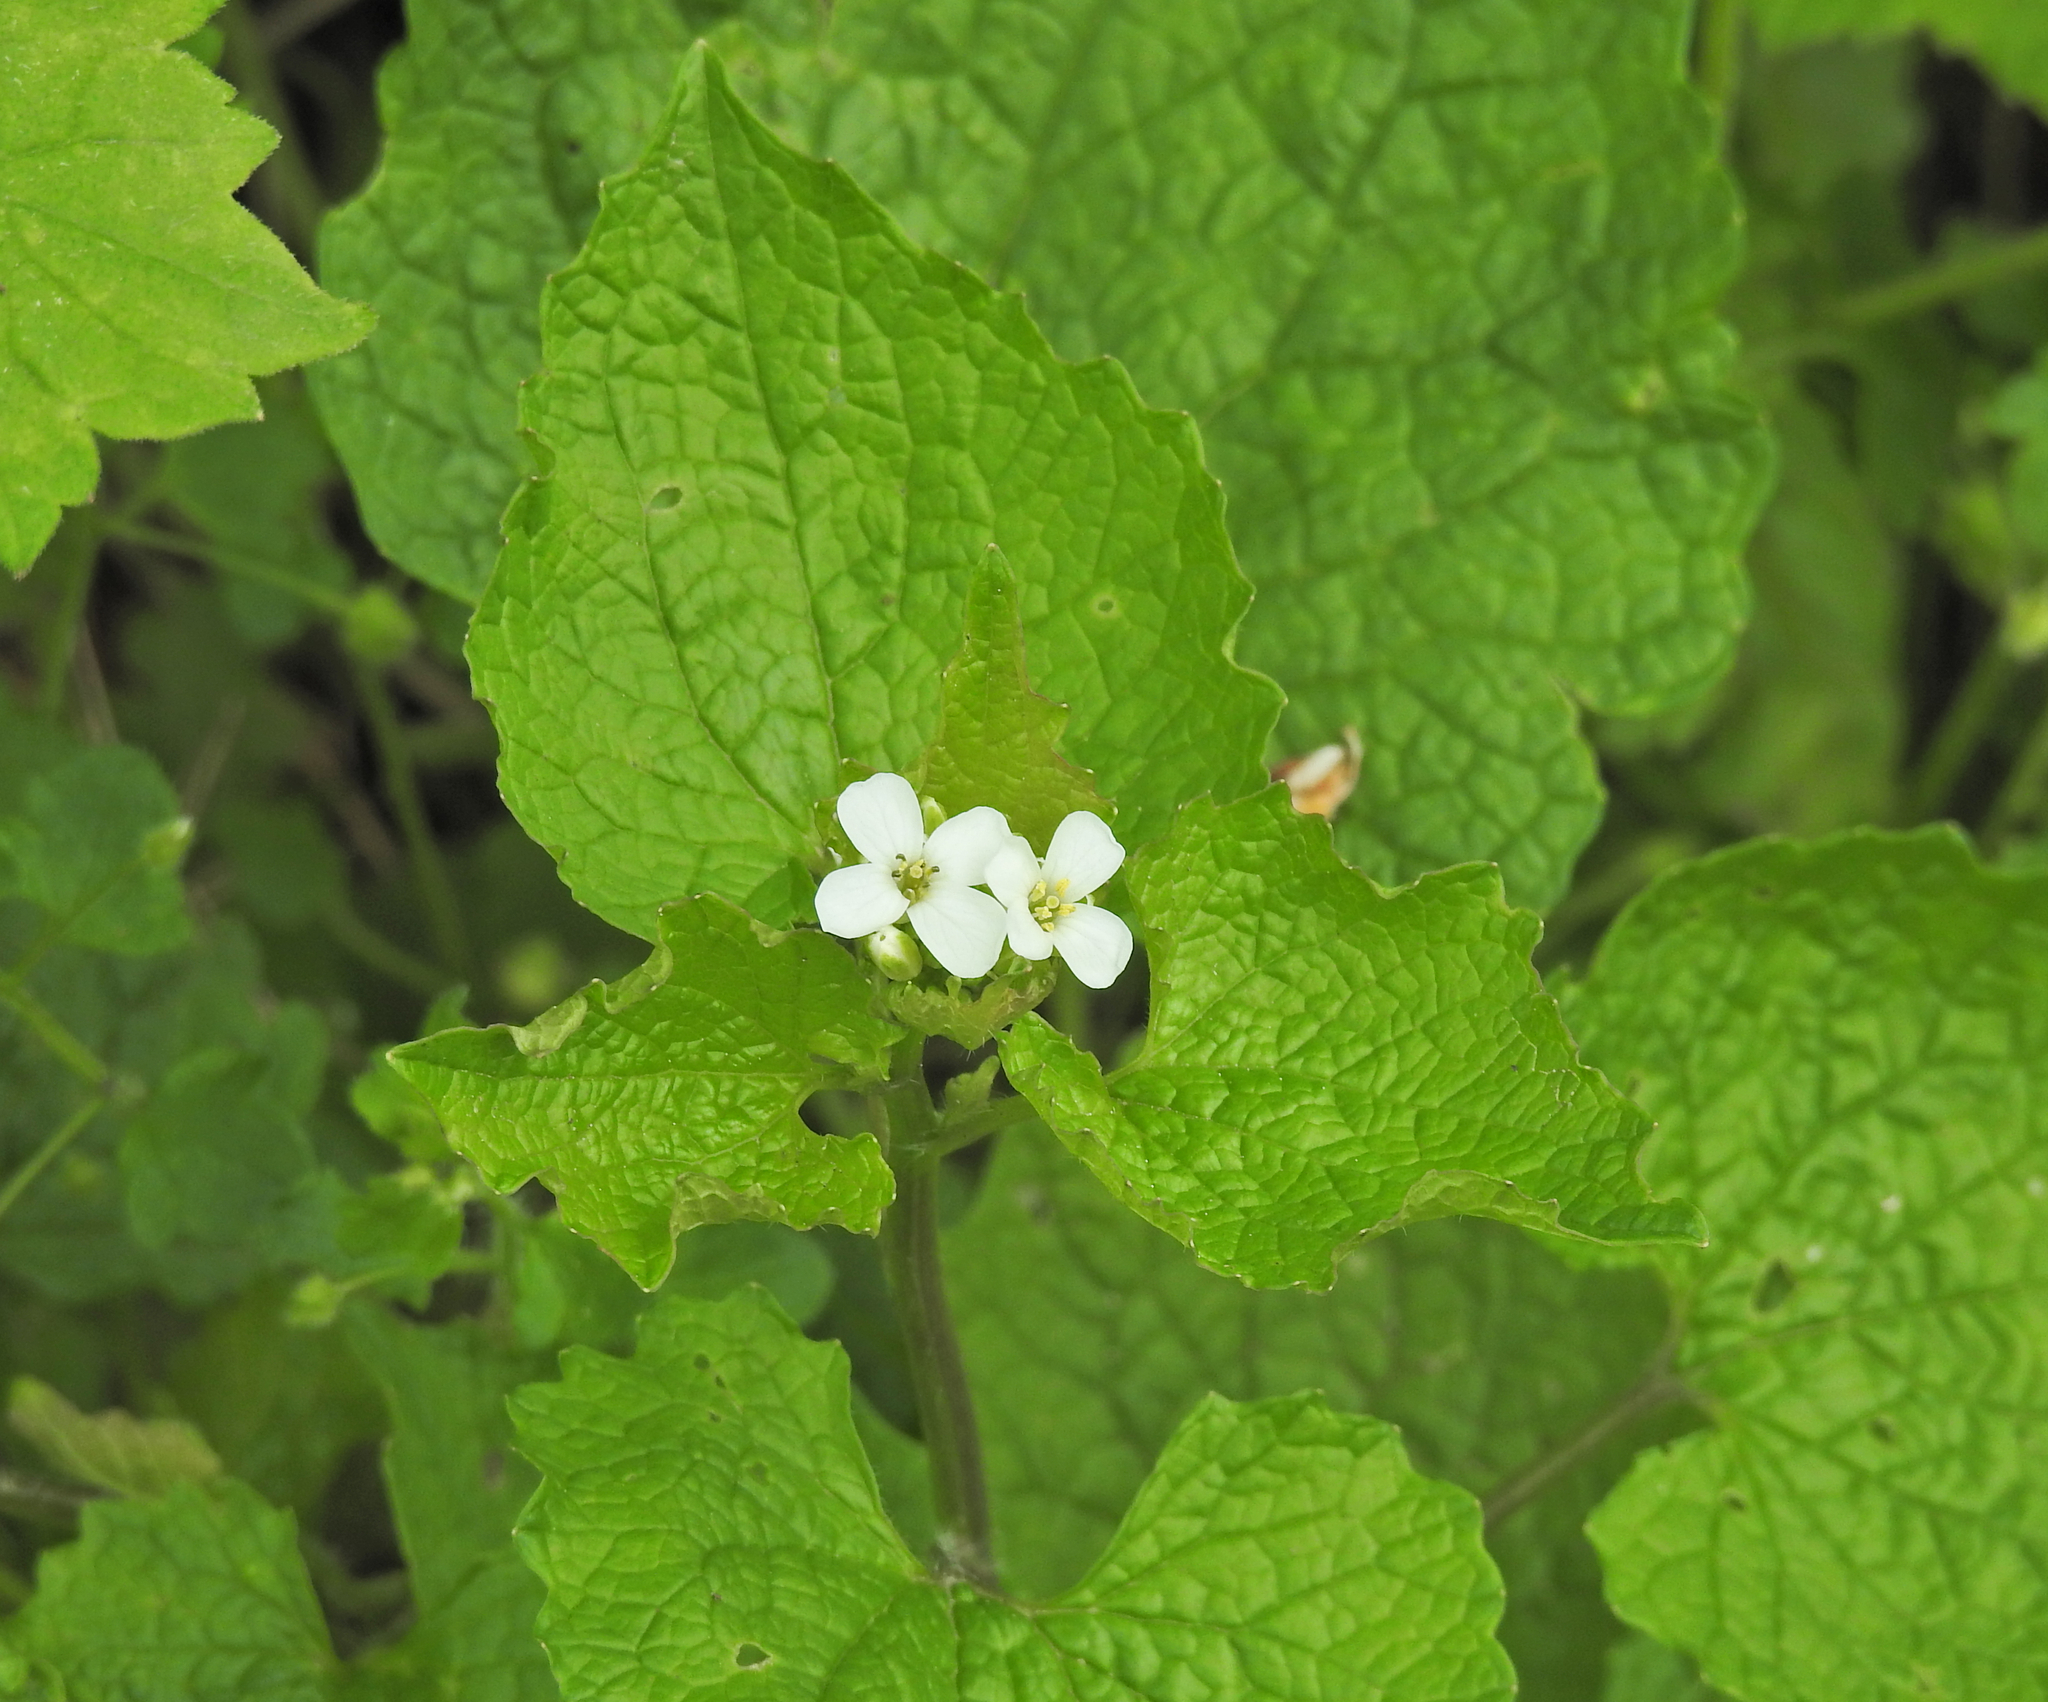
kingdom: Plantae
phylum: Tracheophyta
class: Magnoliopsida
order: Brassicales
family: Brassicaceae
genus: Alliaria
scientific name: Alliaria petiolata
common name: Garlic mustard
